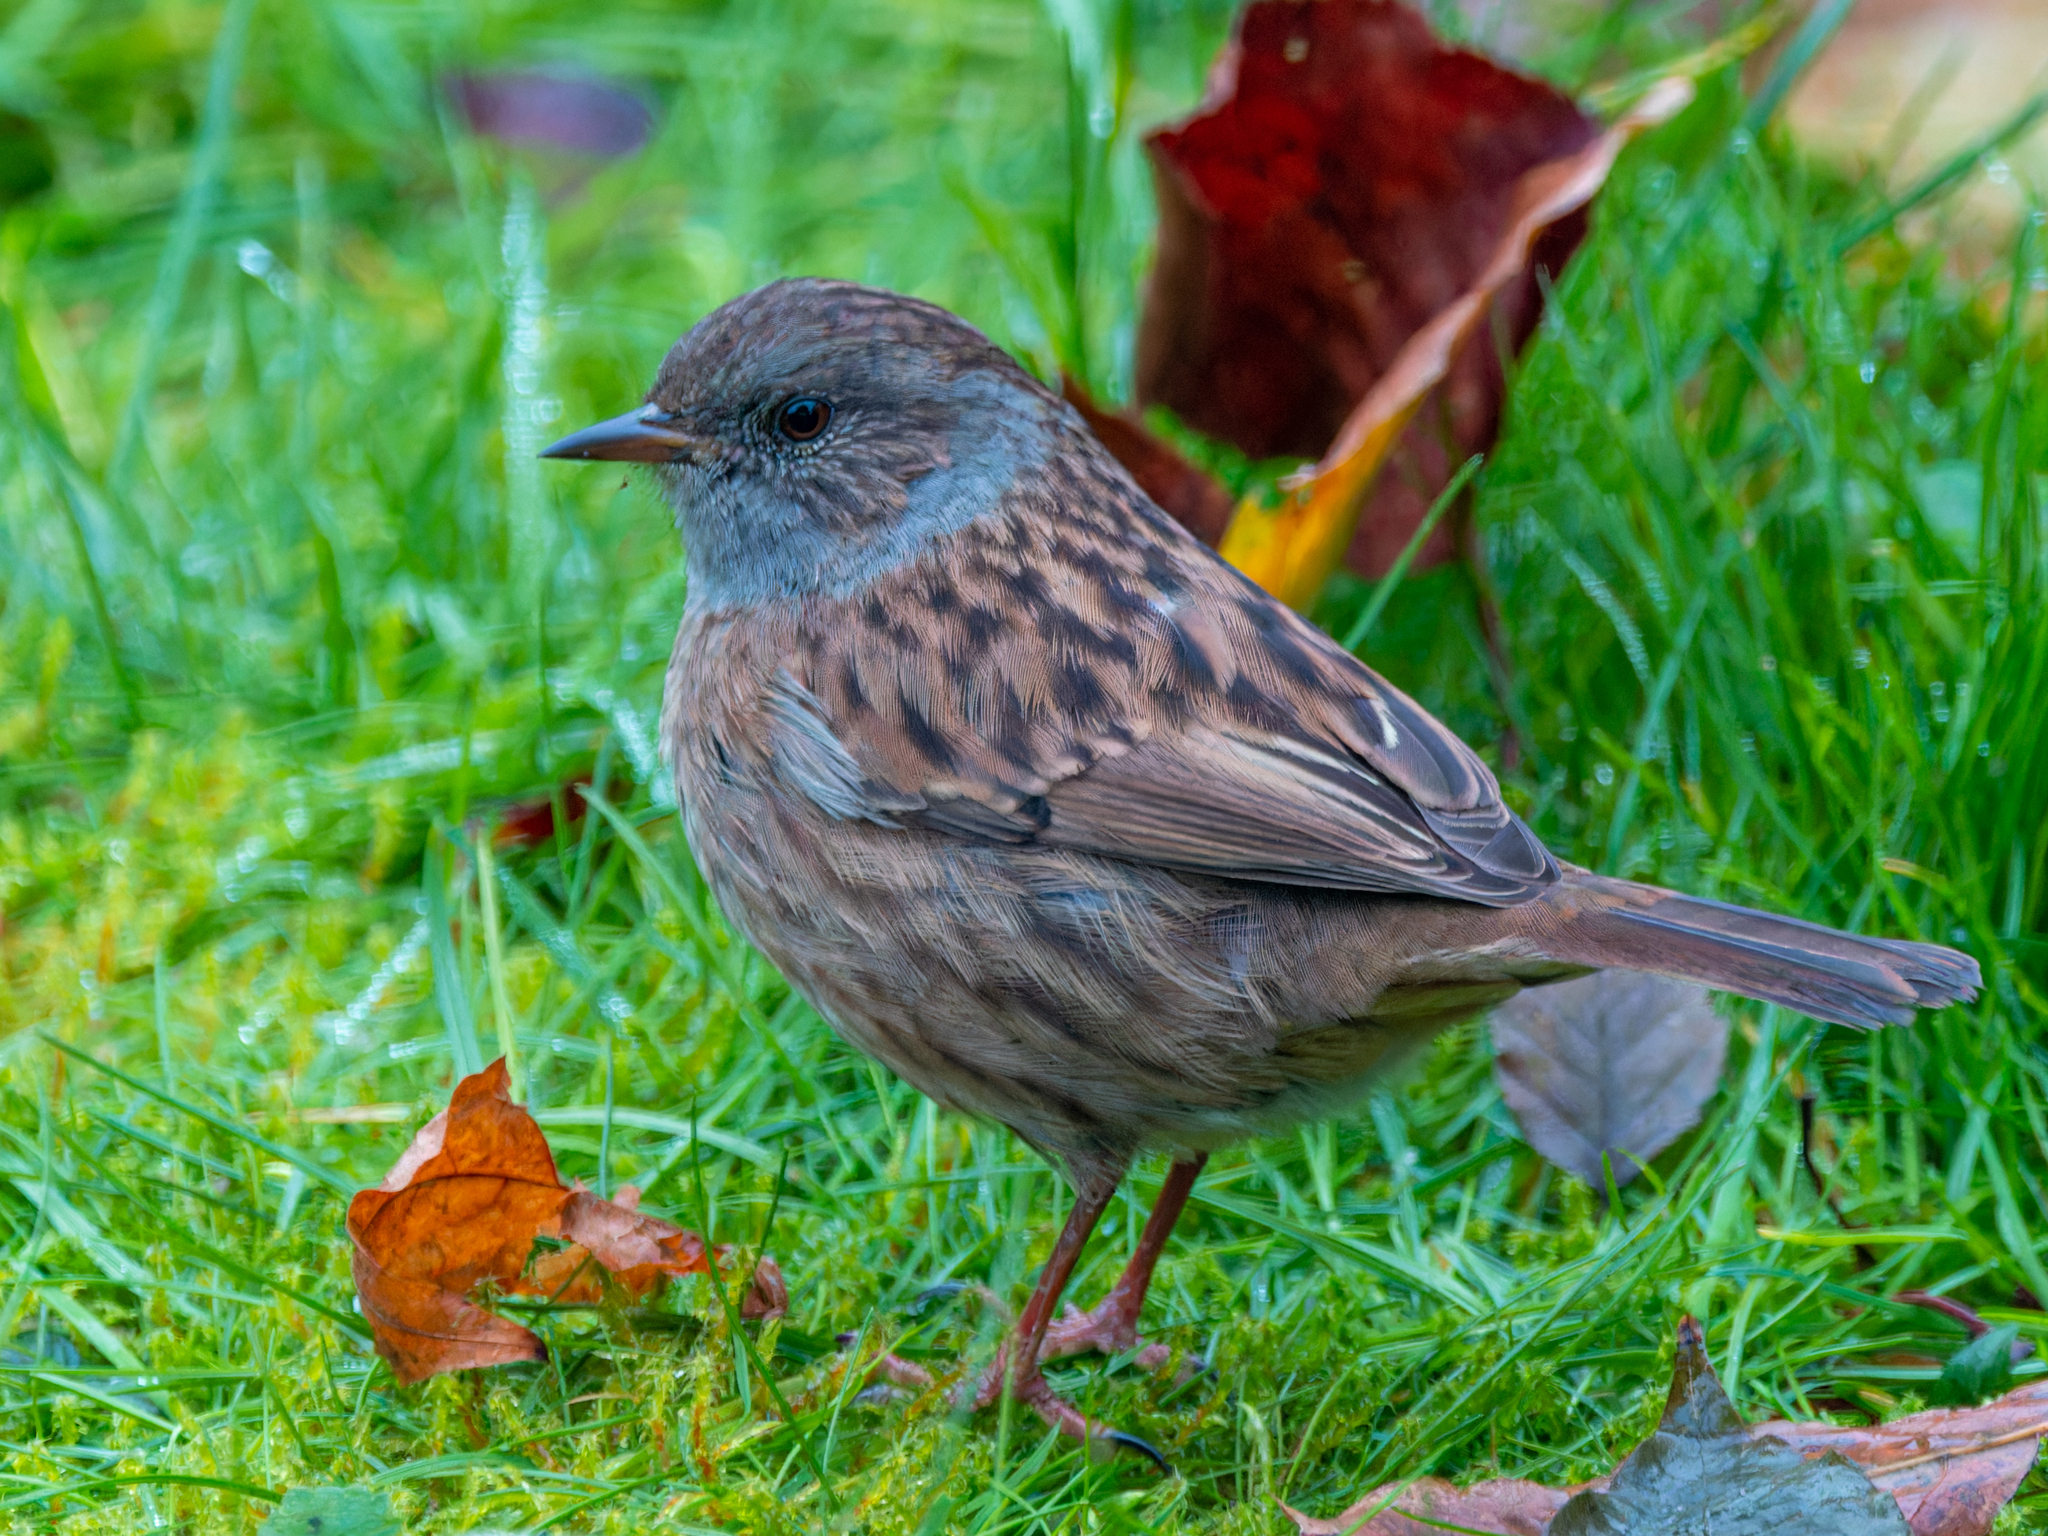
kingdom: Animalia
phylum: Chordata
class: Aves
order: Passeriformes
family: Prunellidae
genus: Prunella
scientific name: Prunella modularis
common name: Dunnock
